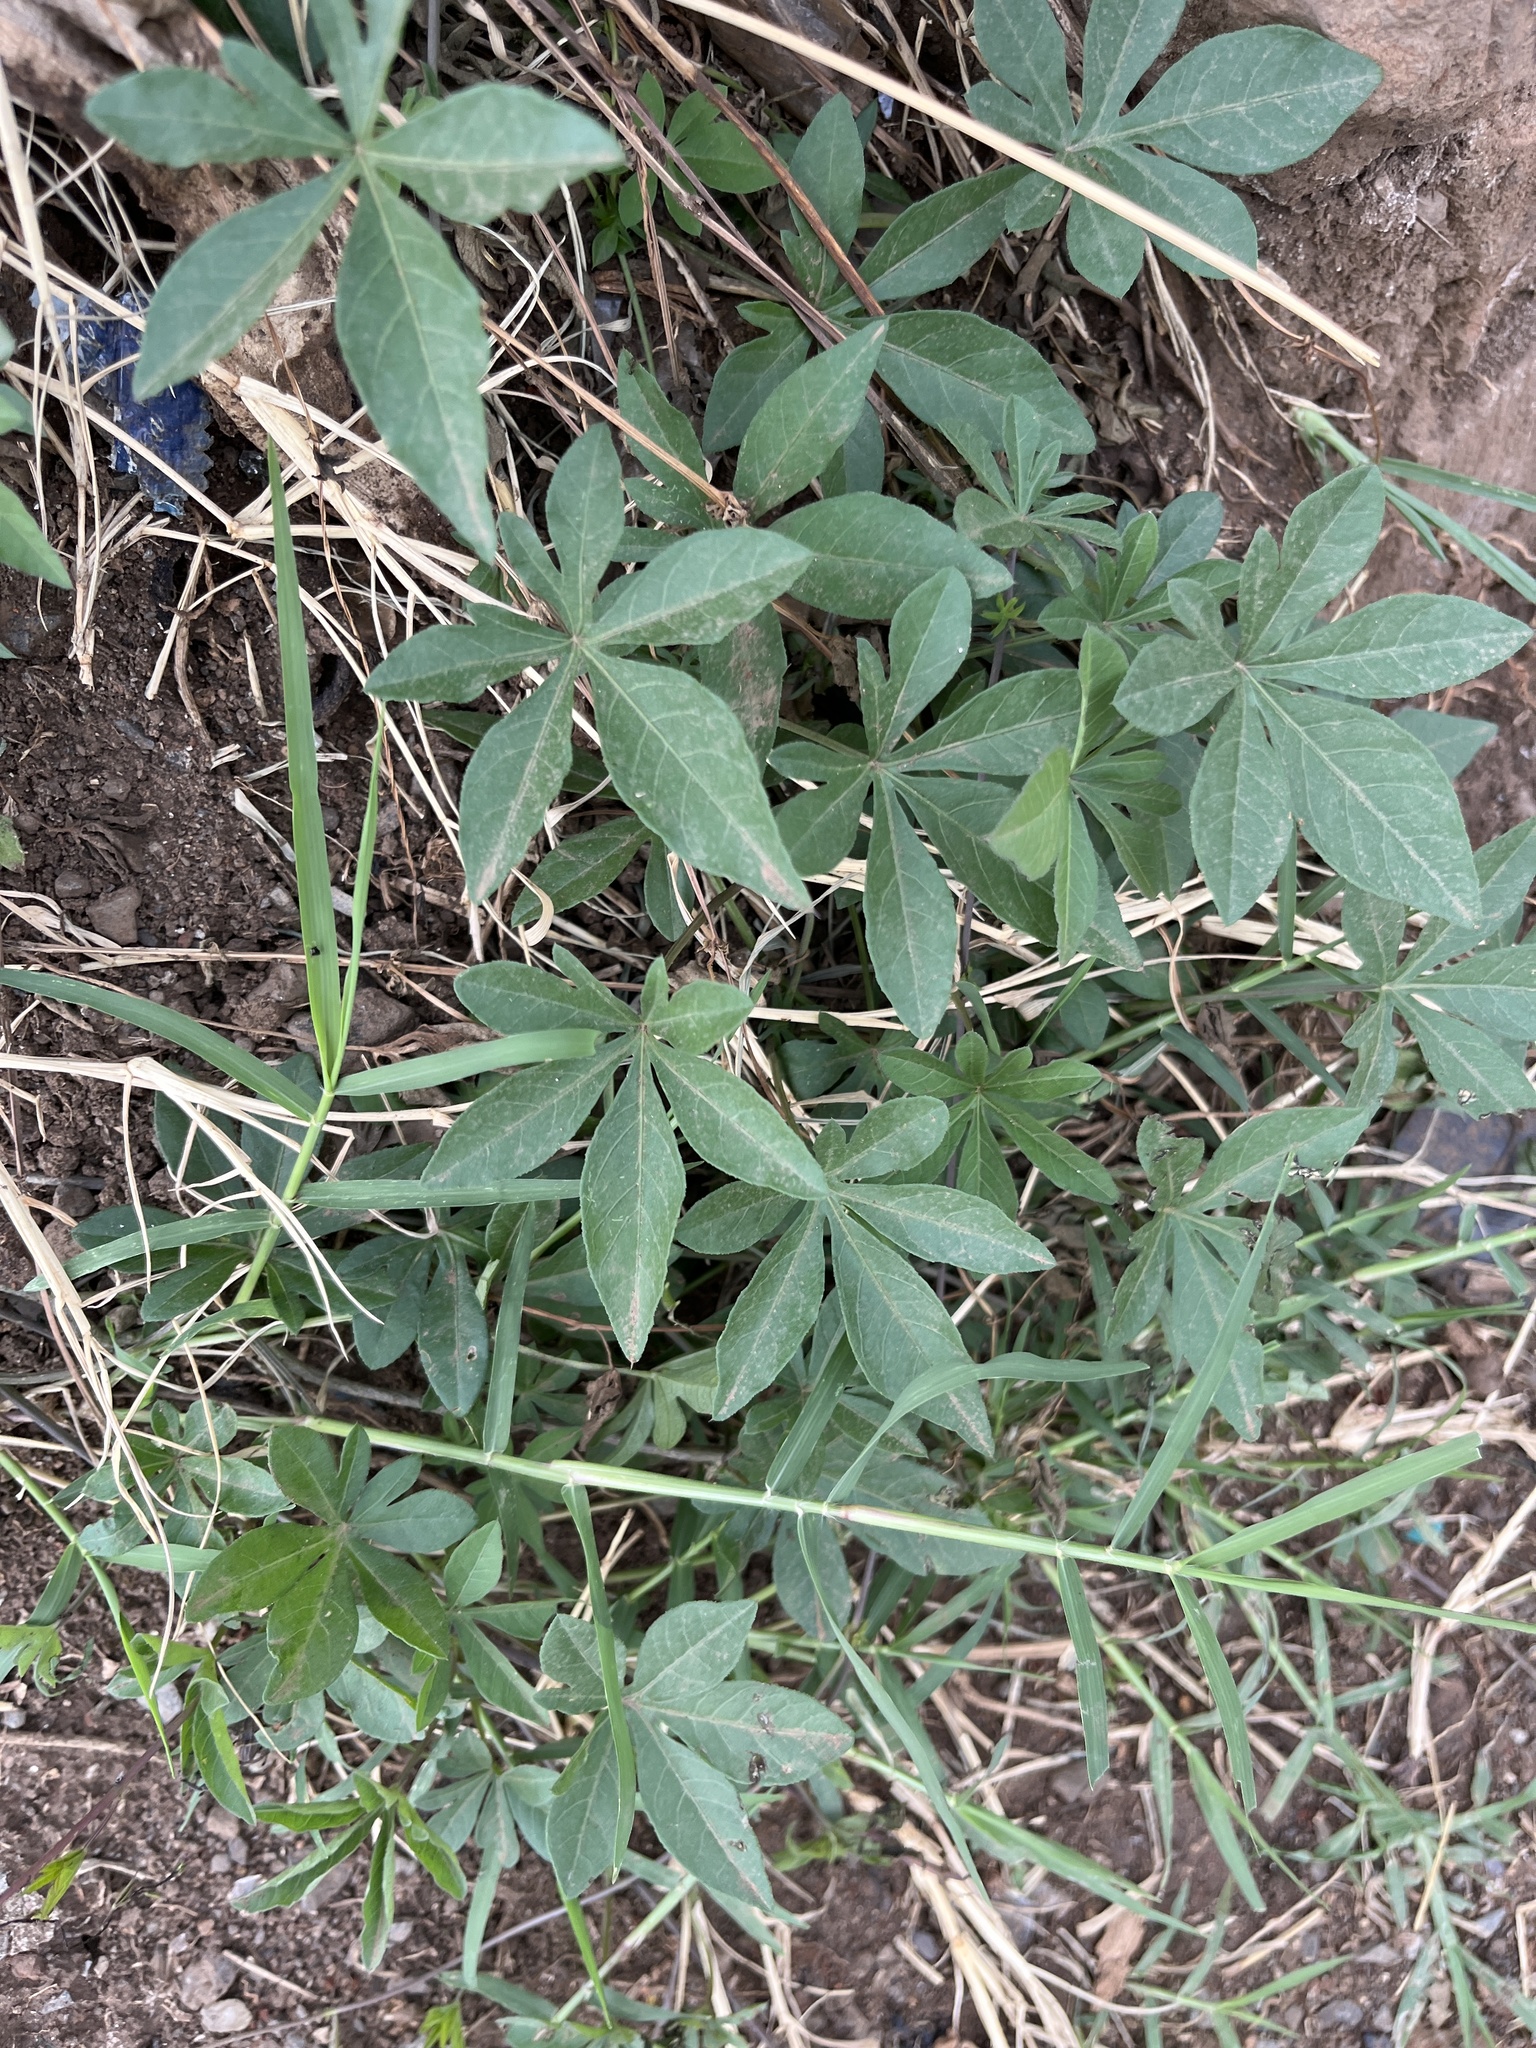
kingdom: Plantae
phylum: Tracheophyta
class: Magnoliopsida
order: Solanales
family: Convolvulaceae
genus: Ipomoea
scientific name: Ipomoea cairica
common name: Mile a minute vine
